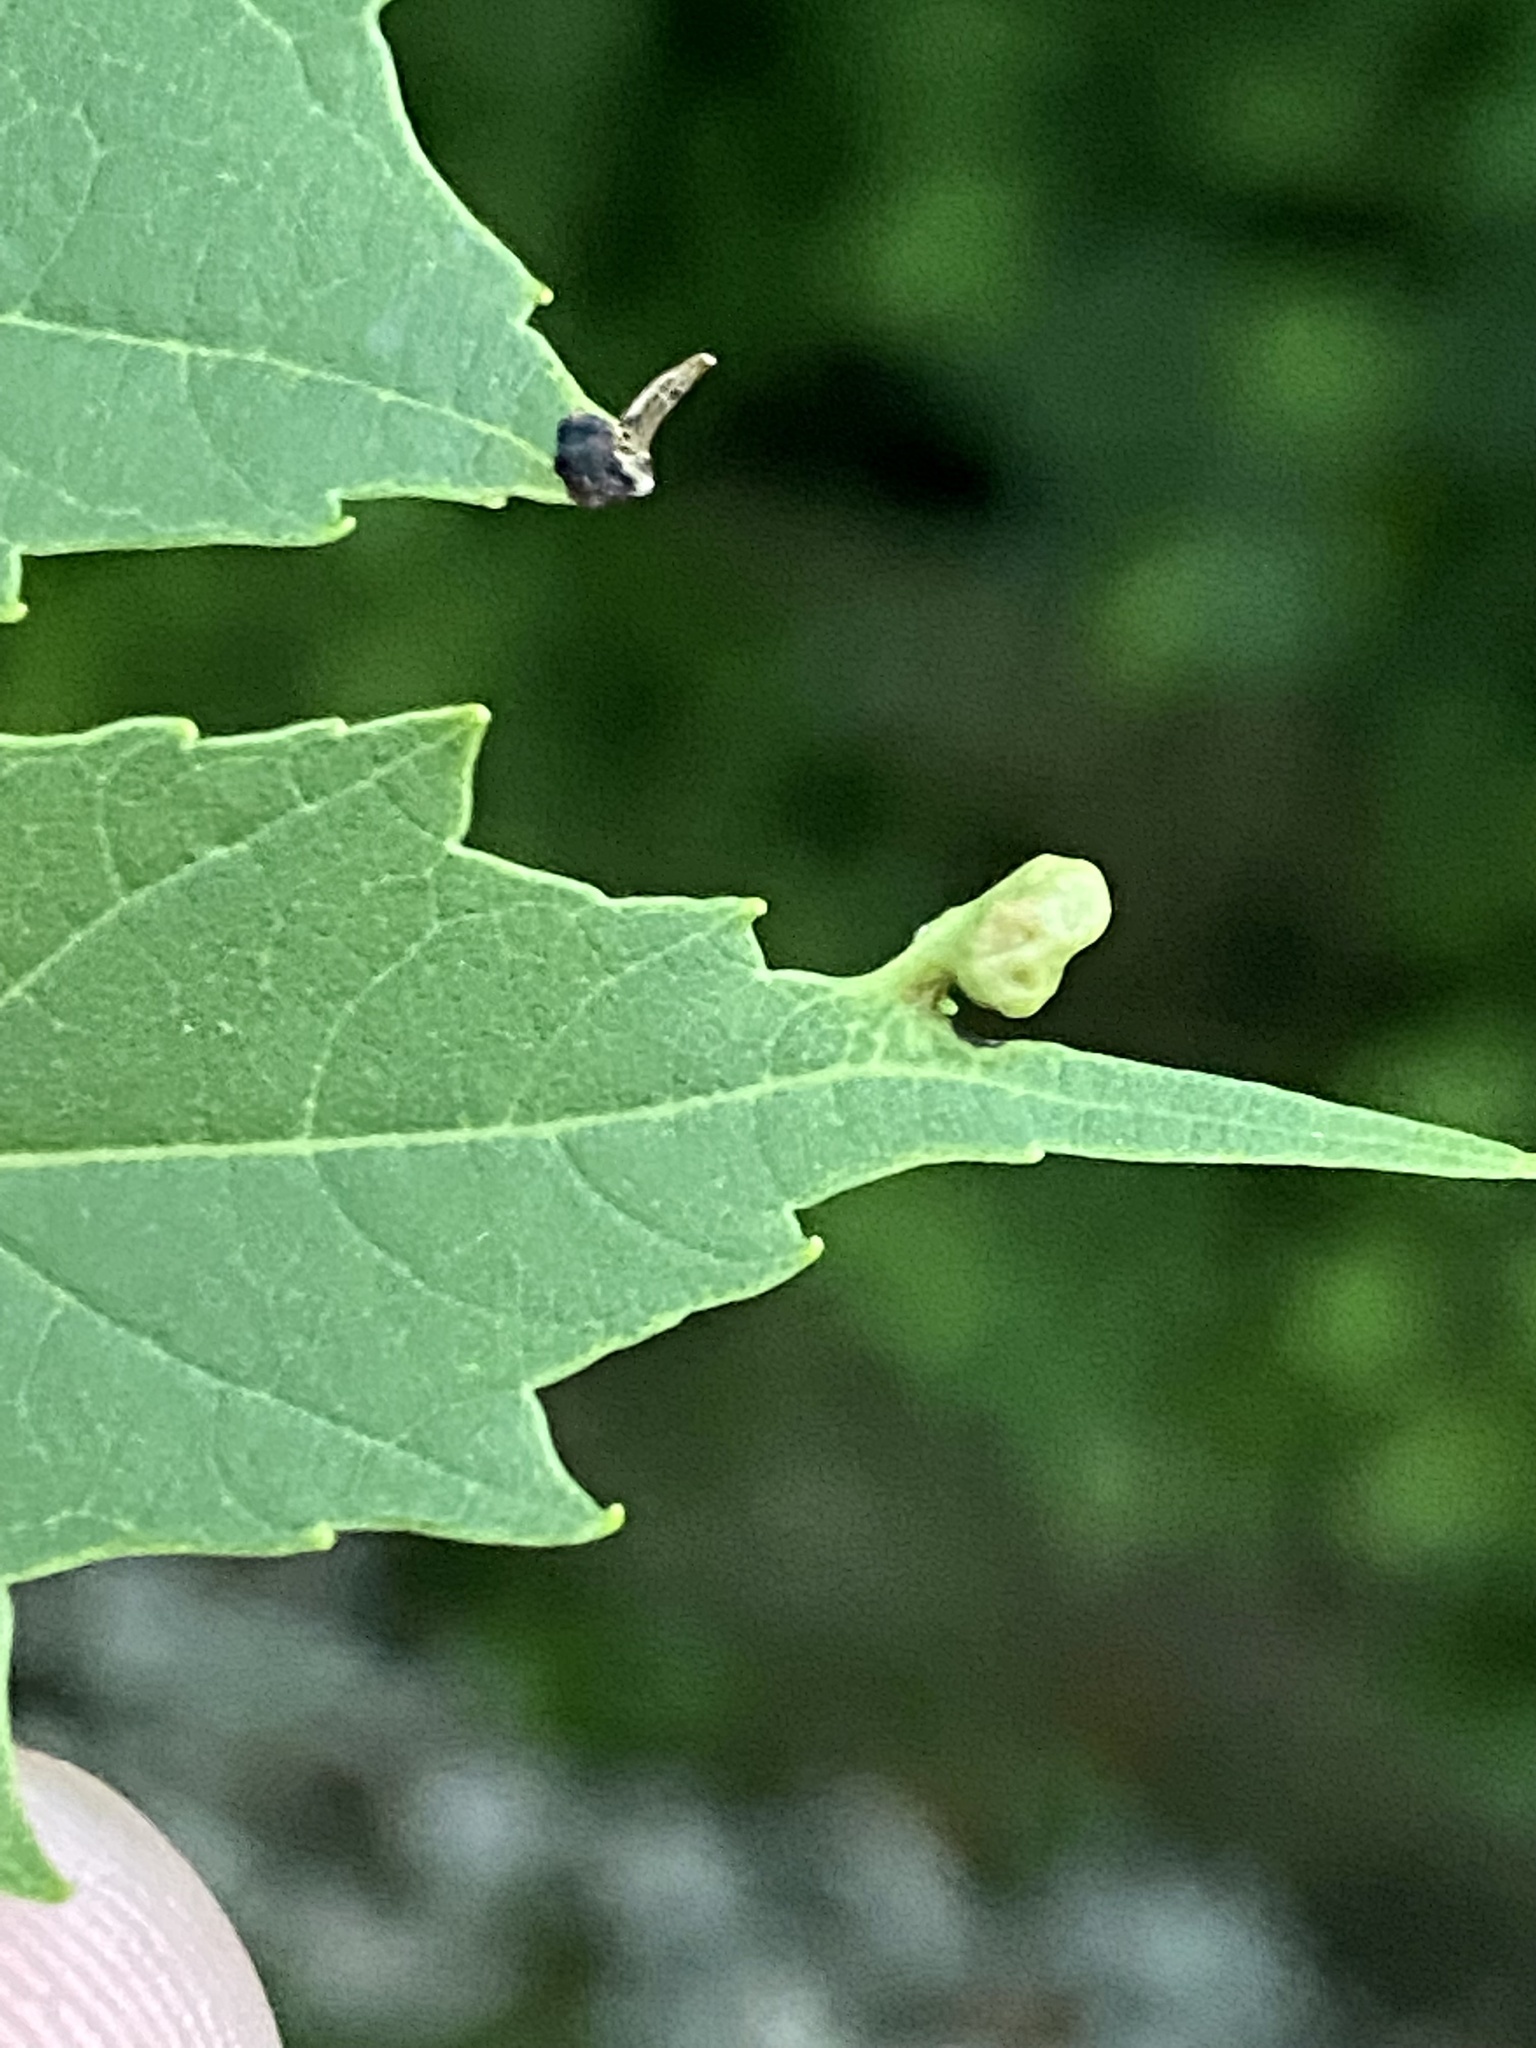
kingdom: Animalia
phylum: Arthropoda
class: Arachnida
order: Trombidiformes
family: Eriophyidae
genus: Vasates
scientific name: Vasates quadripedes
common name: Maple bladder gall mite
